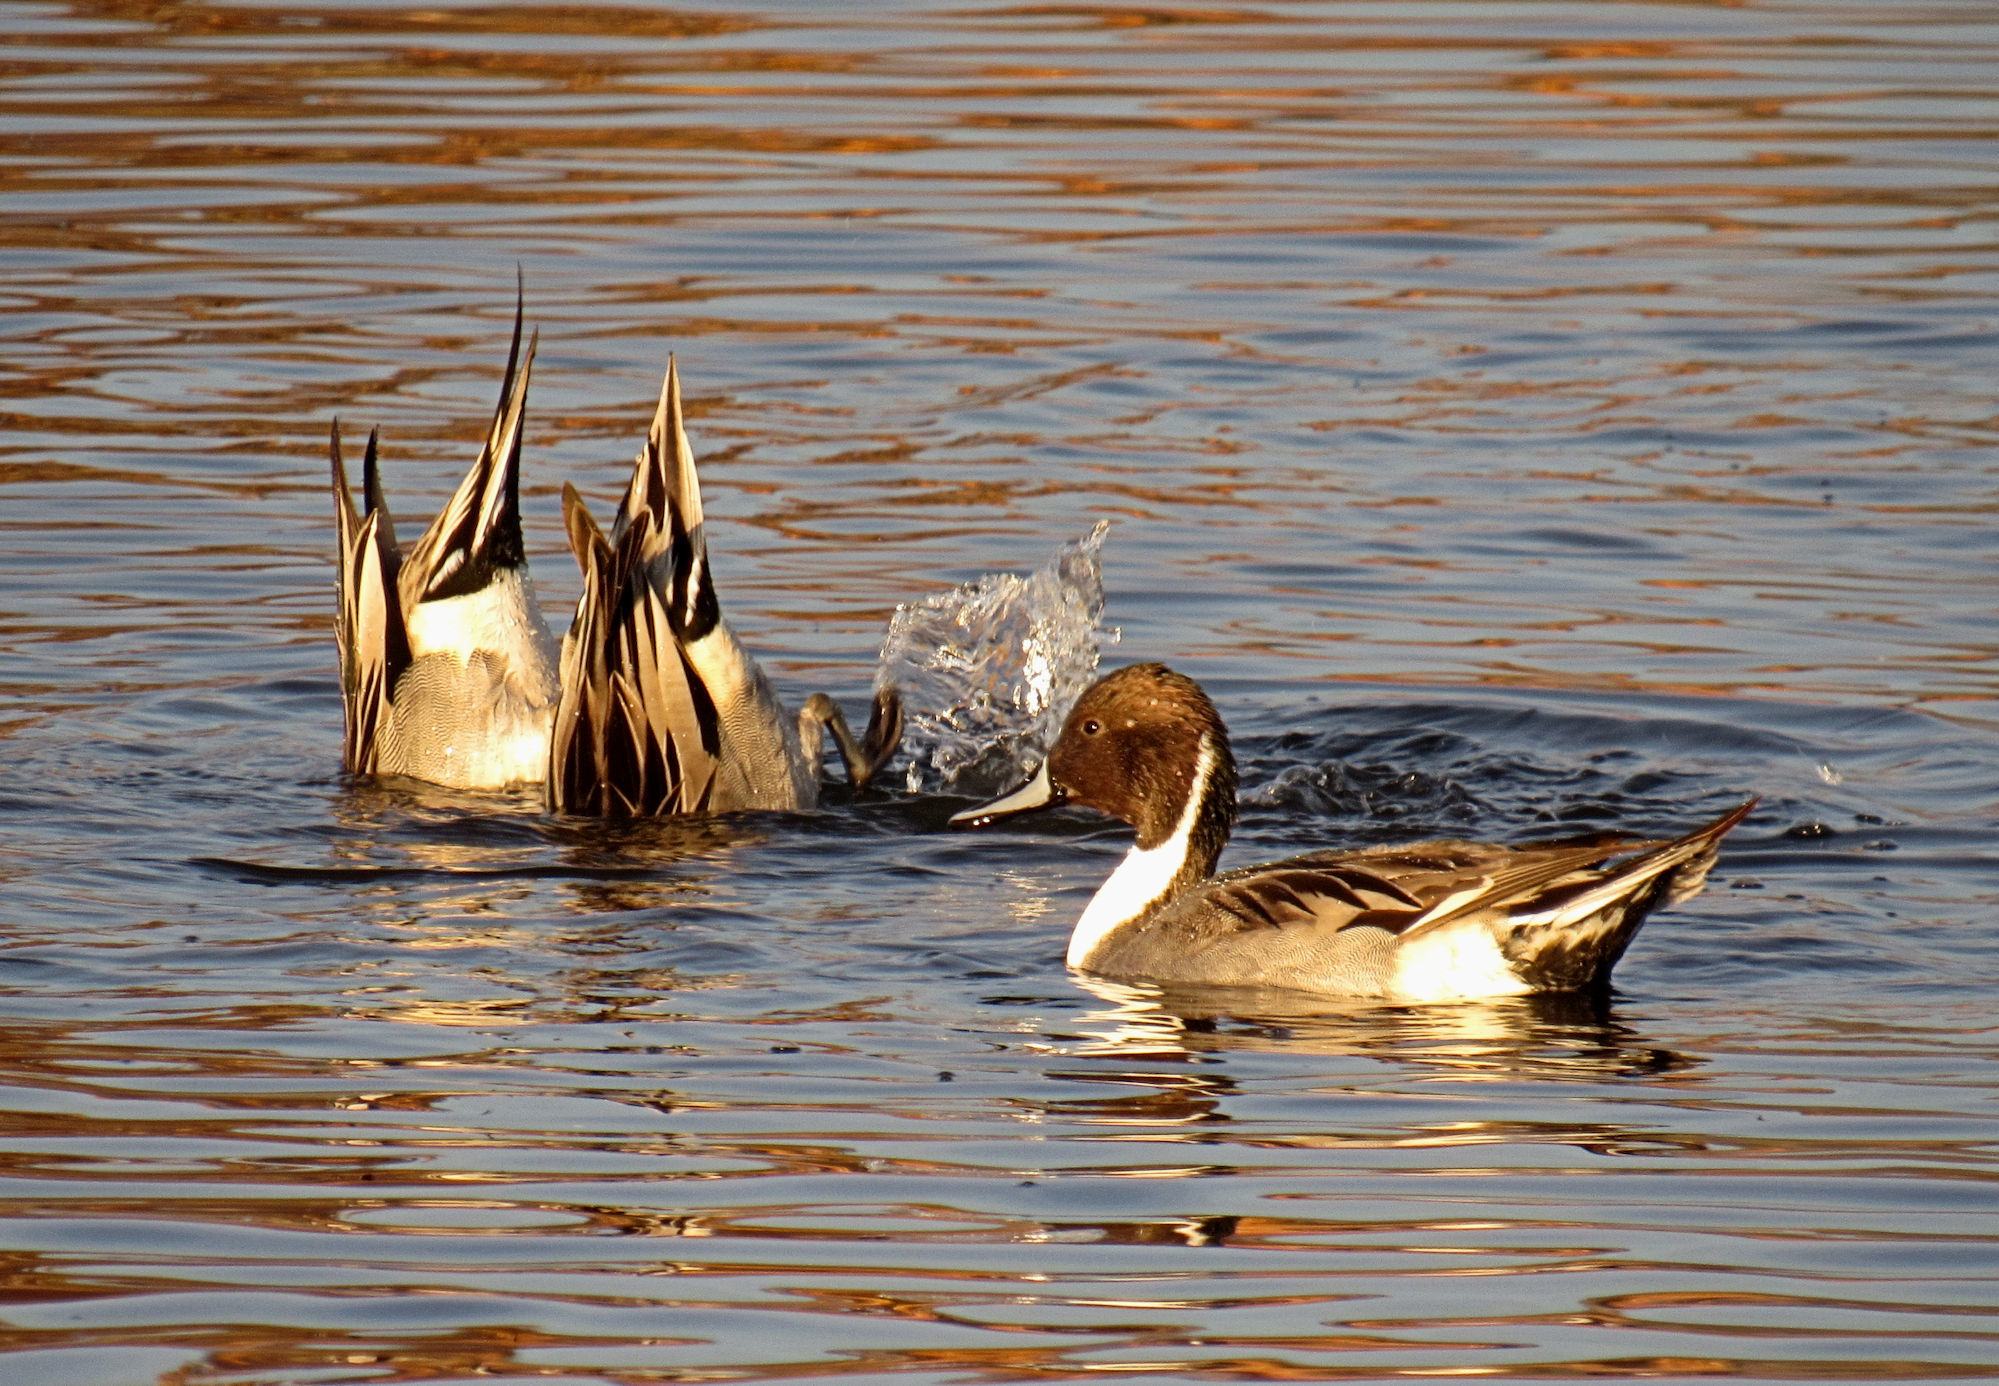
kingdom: Animalia
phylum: Chordata
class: Aves
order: Anseriformes
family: Anatidae
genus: Anas
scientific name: Anas acuta
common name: Northern pintail
